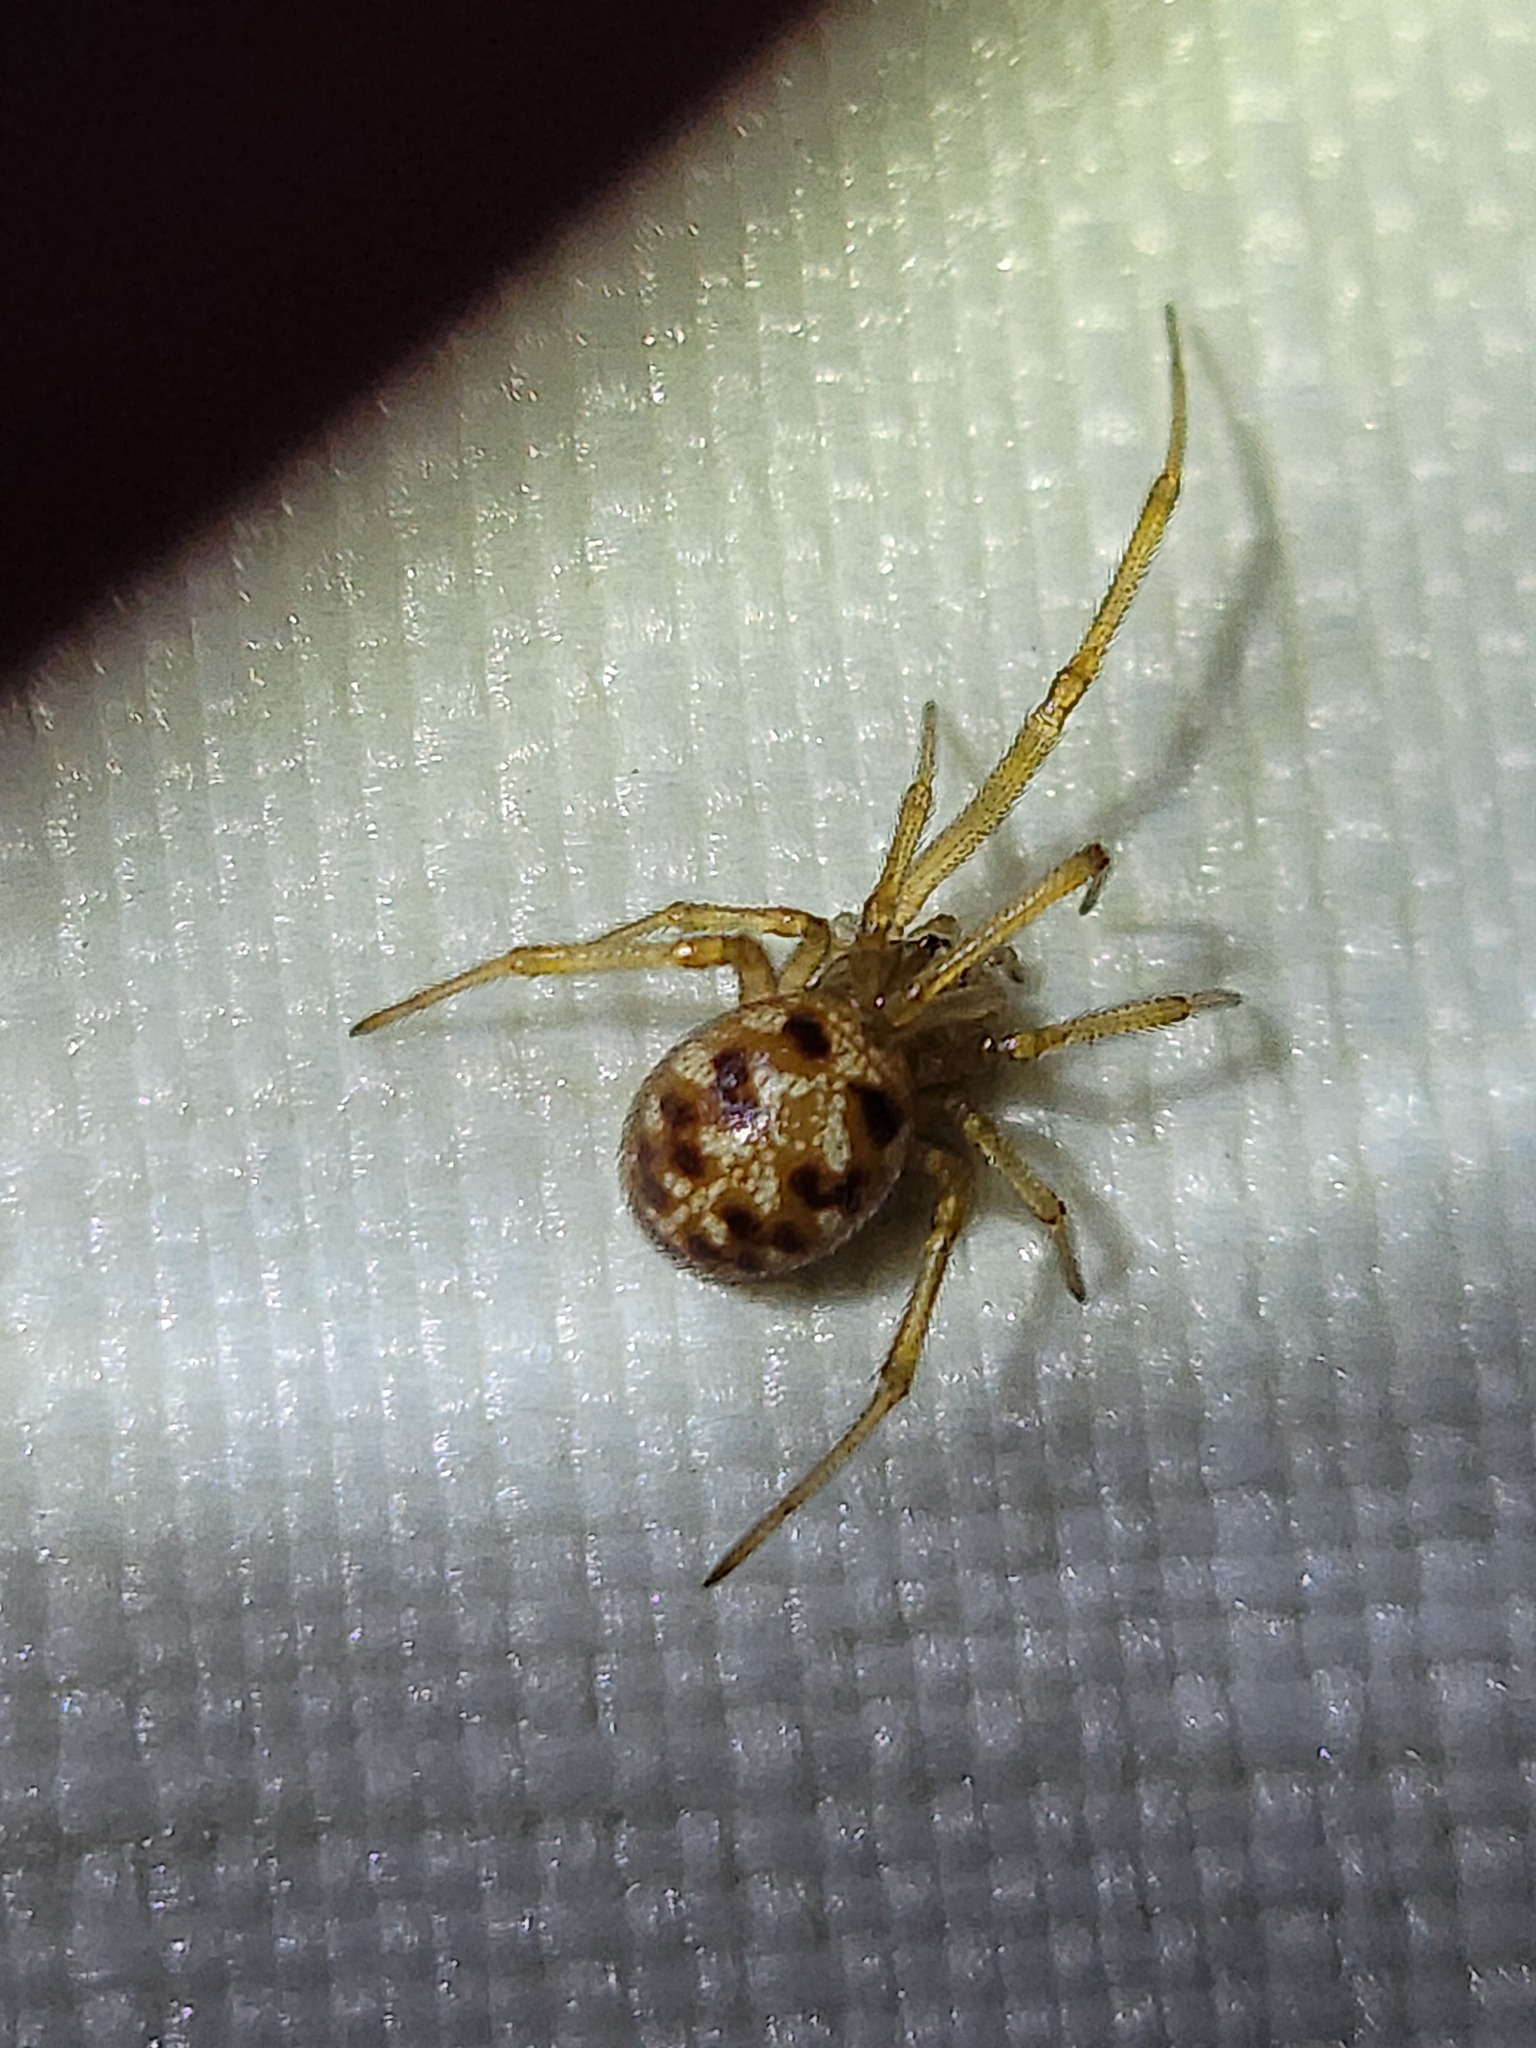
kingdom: Animalia
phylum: Arthropoda
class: Arachnida
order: Araneae
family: Theridiidae
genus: Steatoda
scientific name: Steatoda triangulosa
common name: Triangulate bud spider
